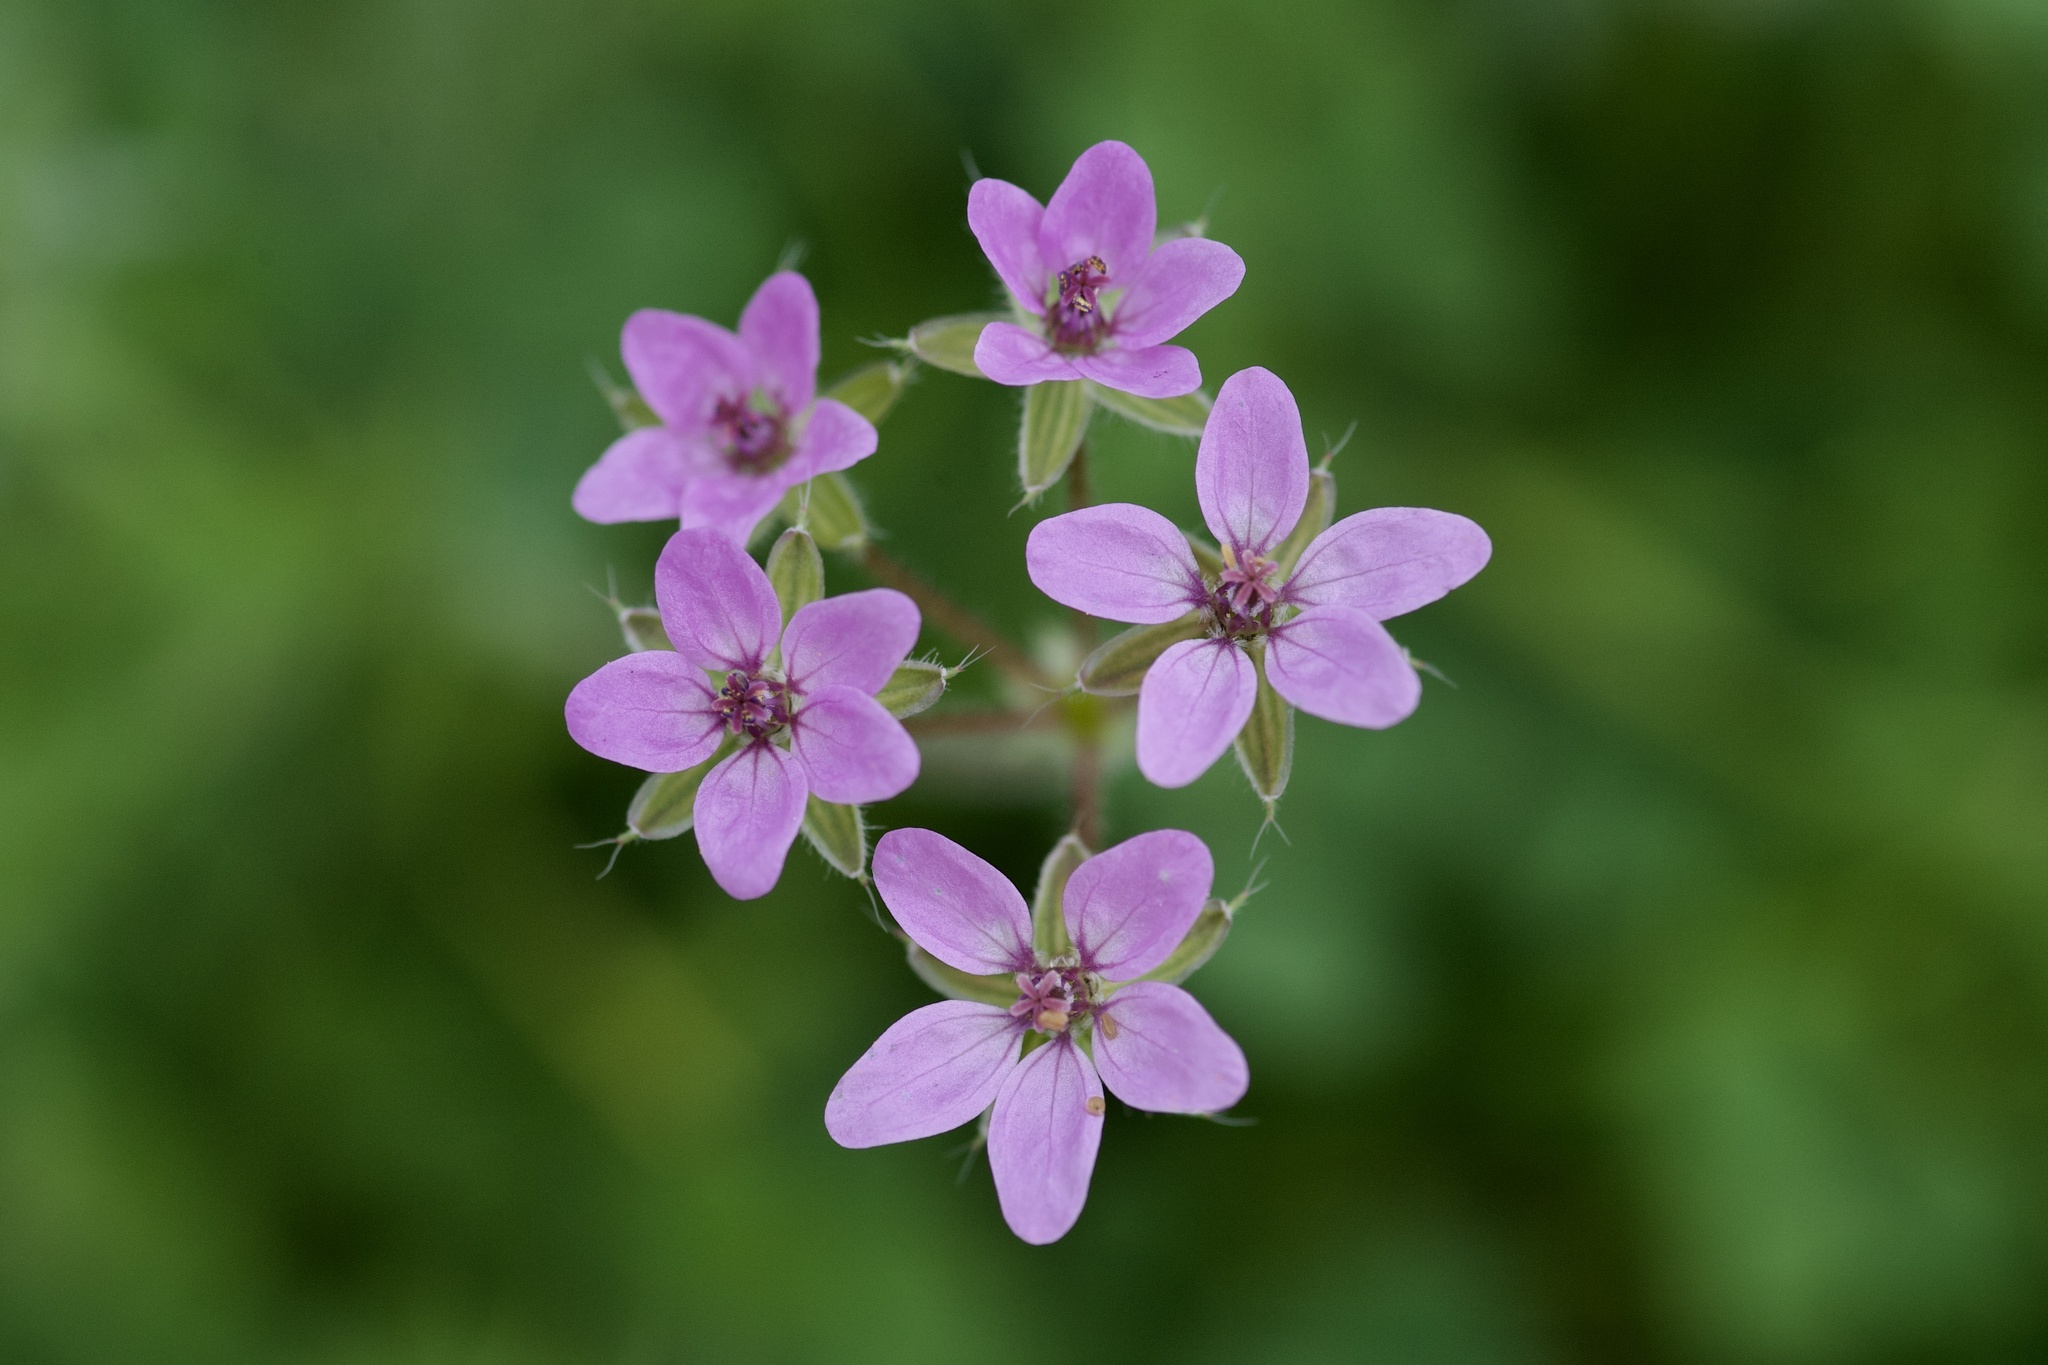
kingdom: Plantae
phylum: Tracheophyta
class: Magnoliopsida
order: Geraniales
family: Geraniaceae
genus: Erodium
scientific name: Erodium cicutarium
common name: Common stork's-bill
